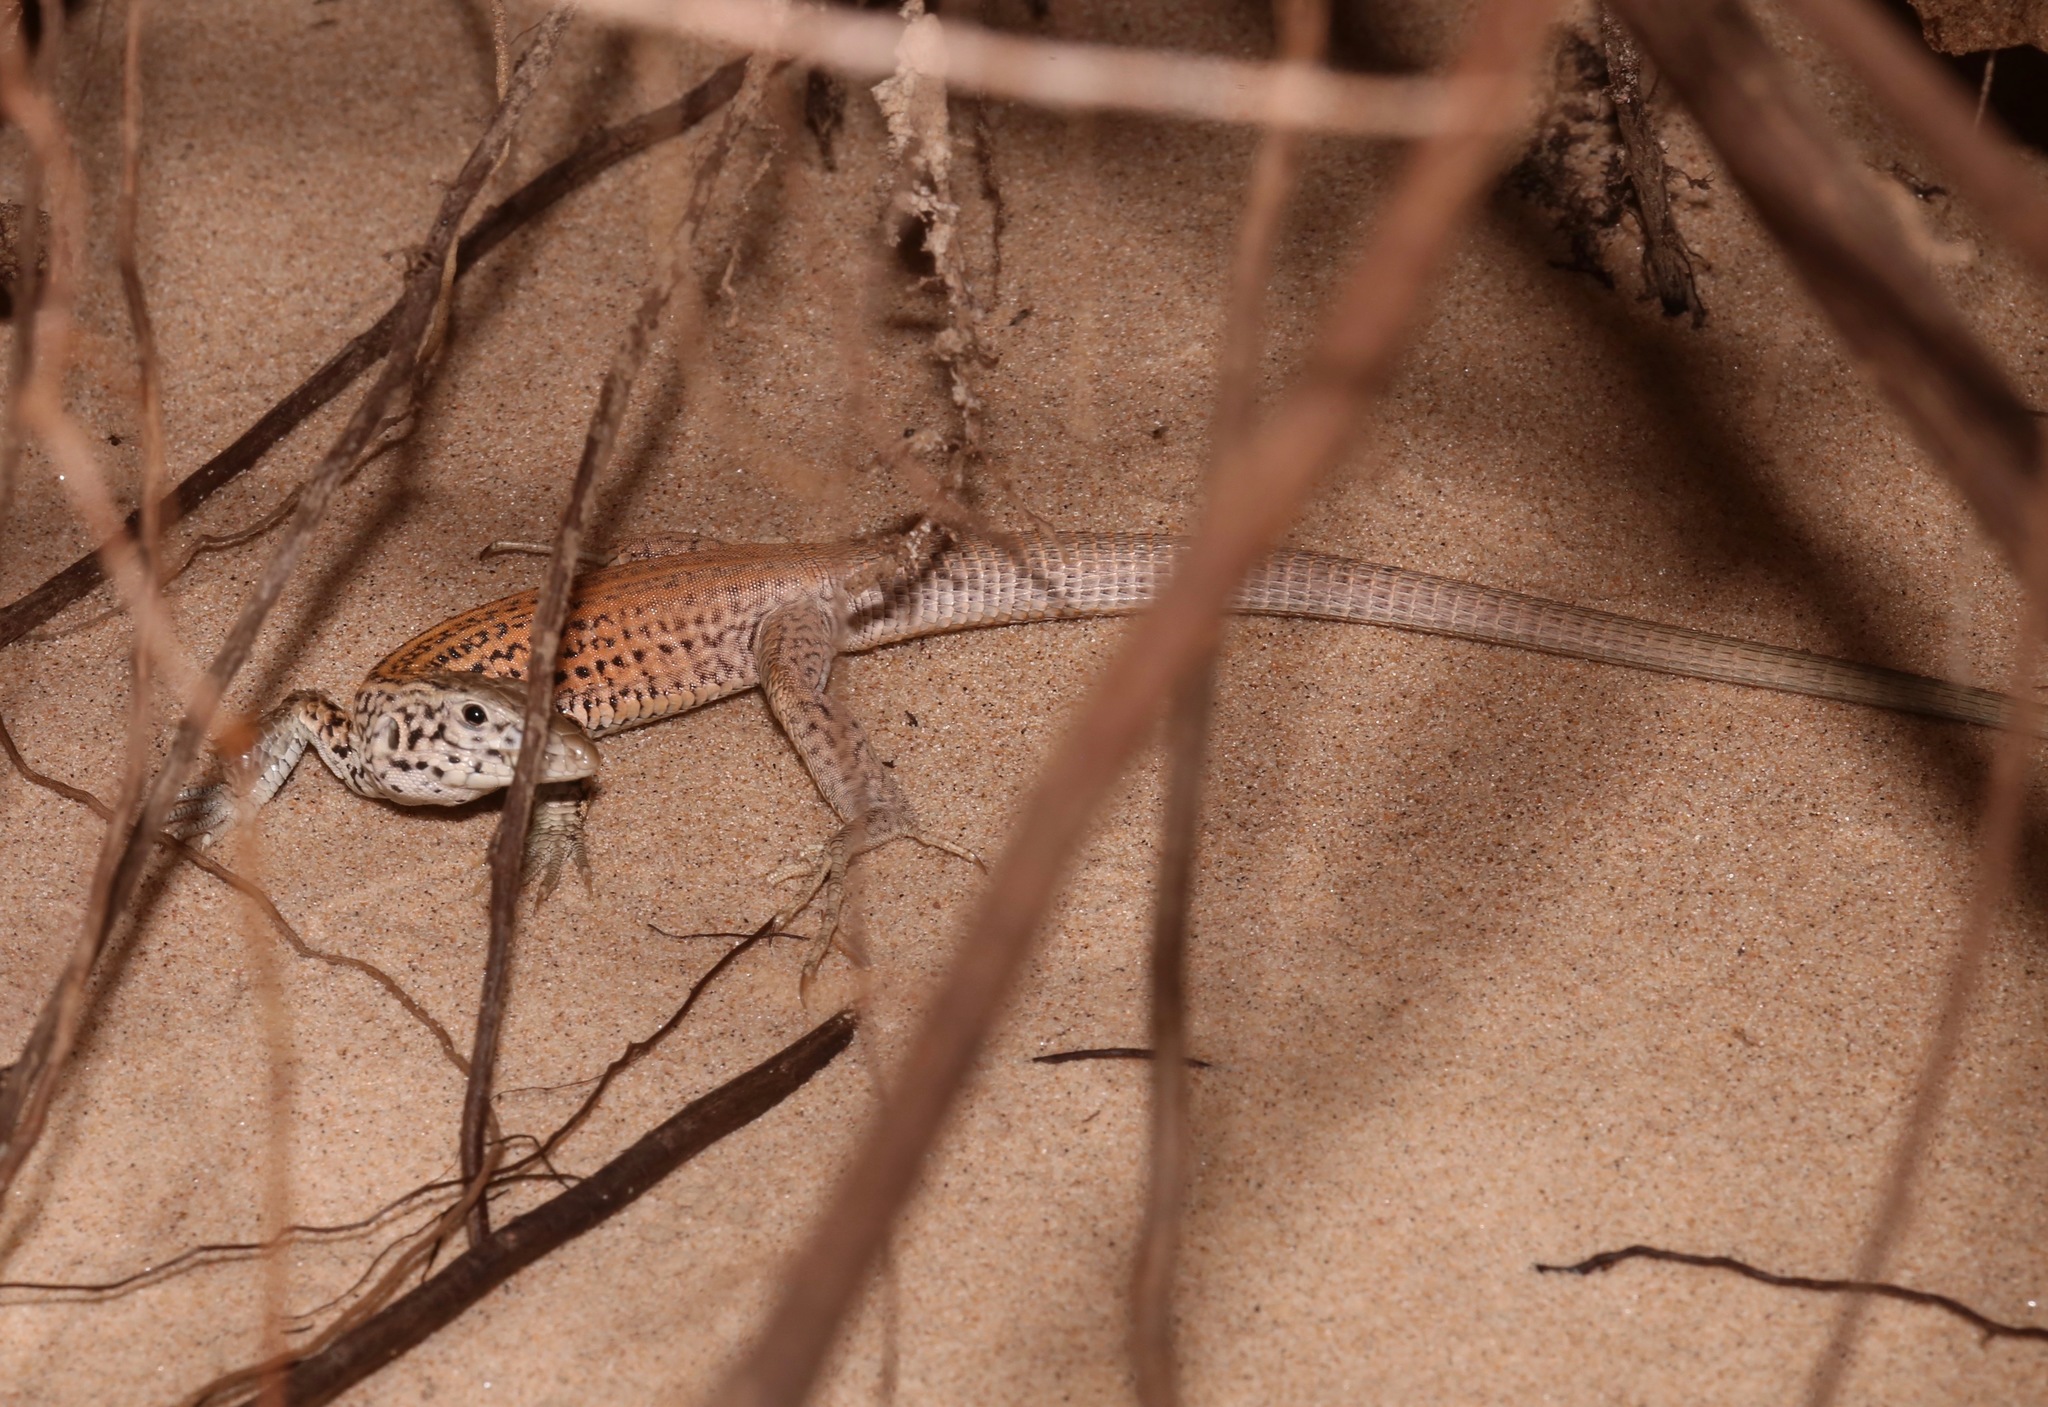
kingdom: Animalia
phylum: Chordata
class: Squamata
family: Teiidae
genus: Aspidoscelis
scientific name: Aspidoscelis tigris
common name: Tiger whiptail
